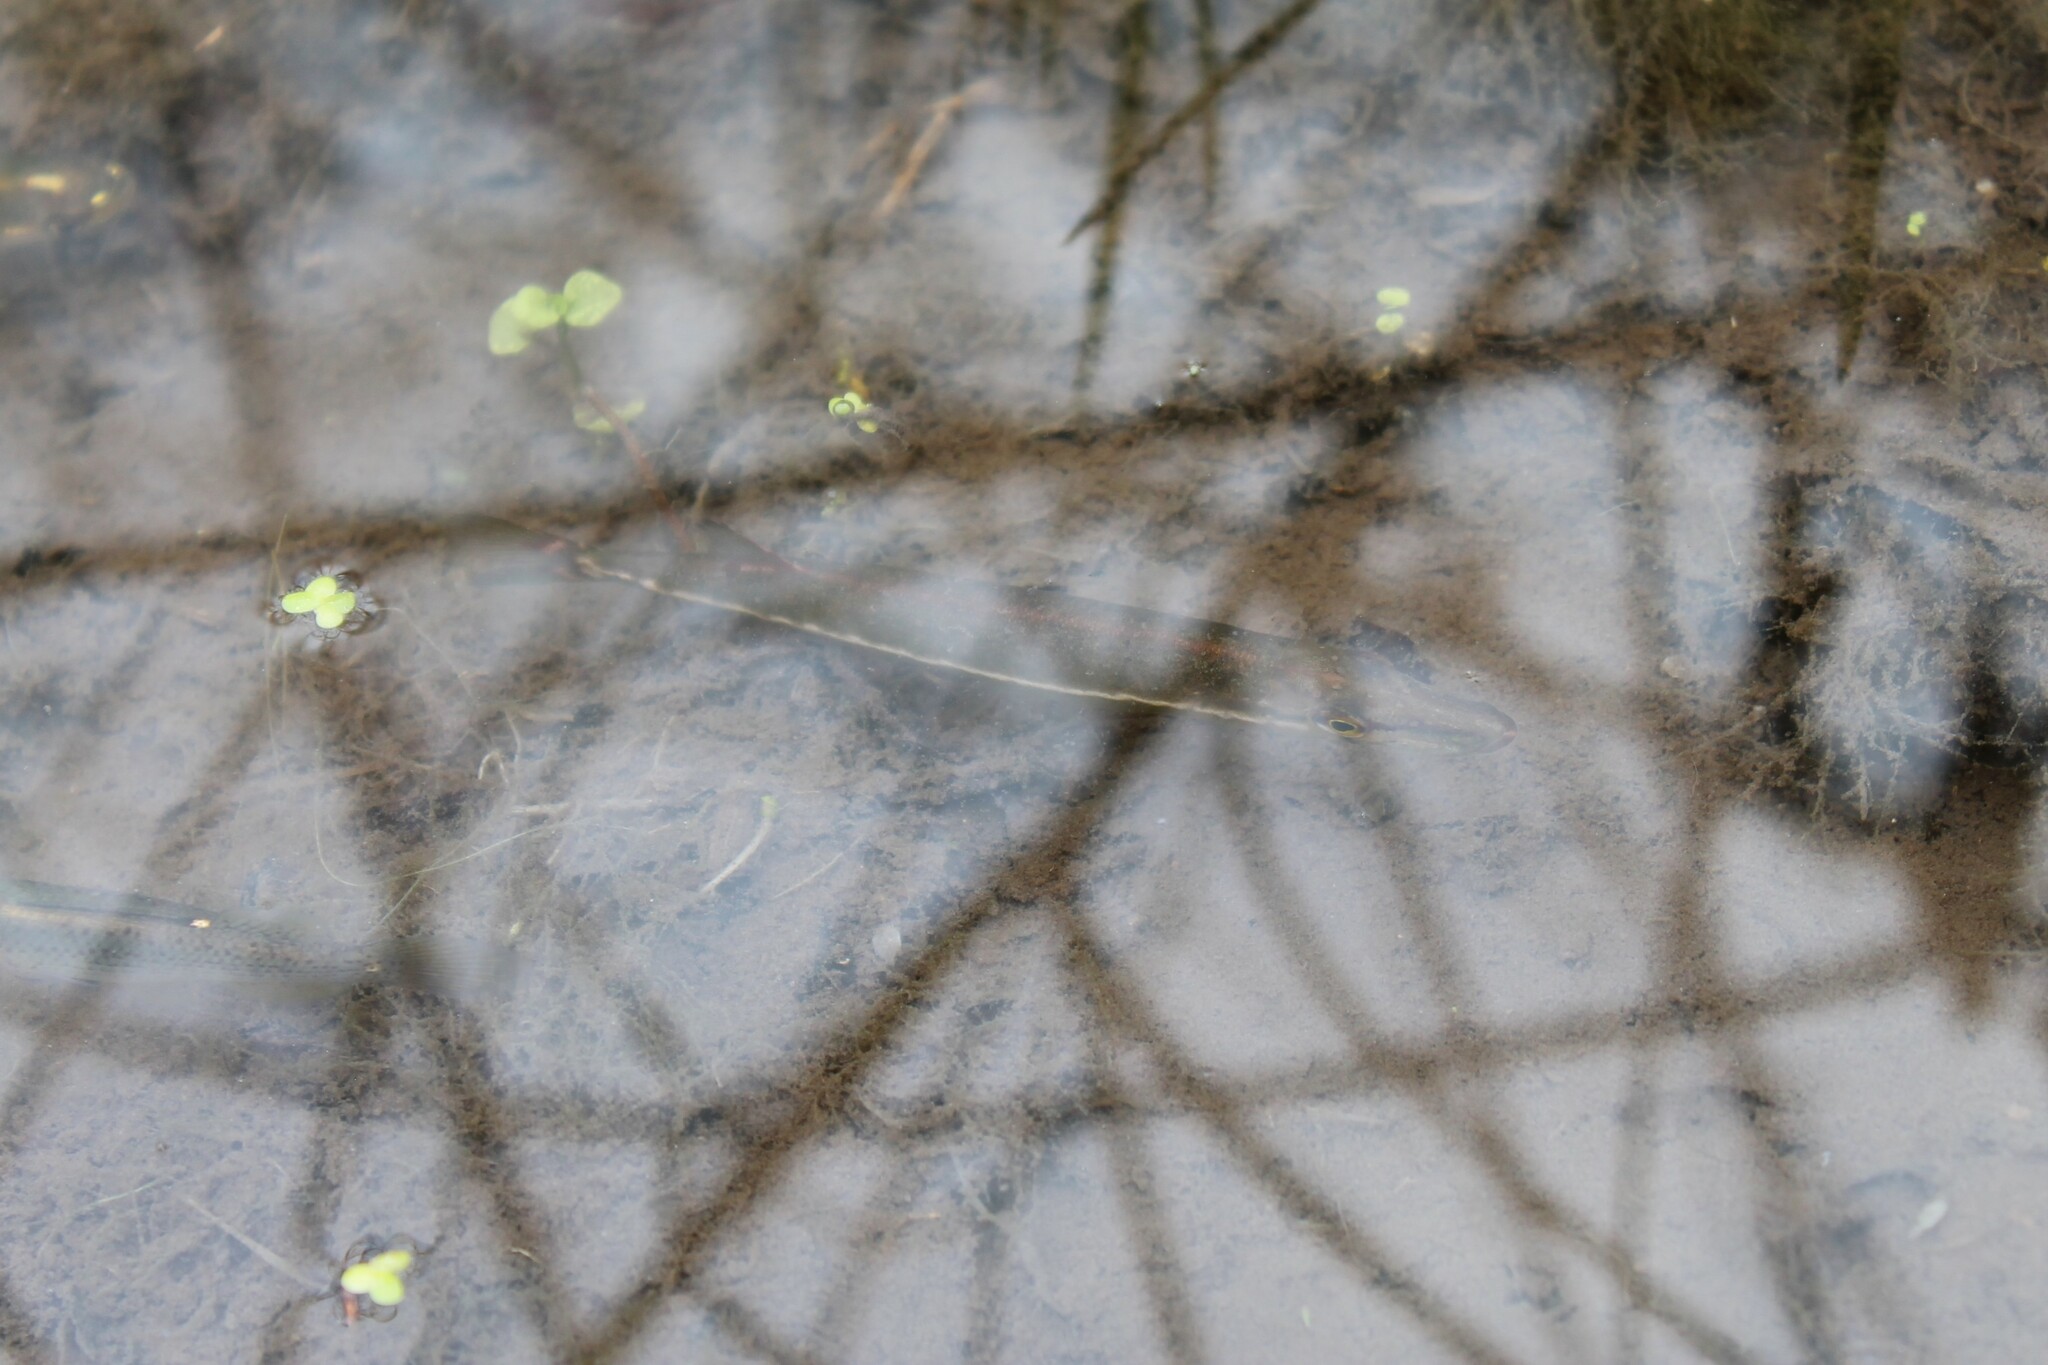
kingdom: Animalia
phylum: Chordata
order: Esociformes
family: Esocidae
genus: Esox
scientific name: Esox americanus
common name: Redfin pickerel
